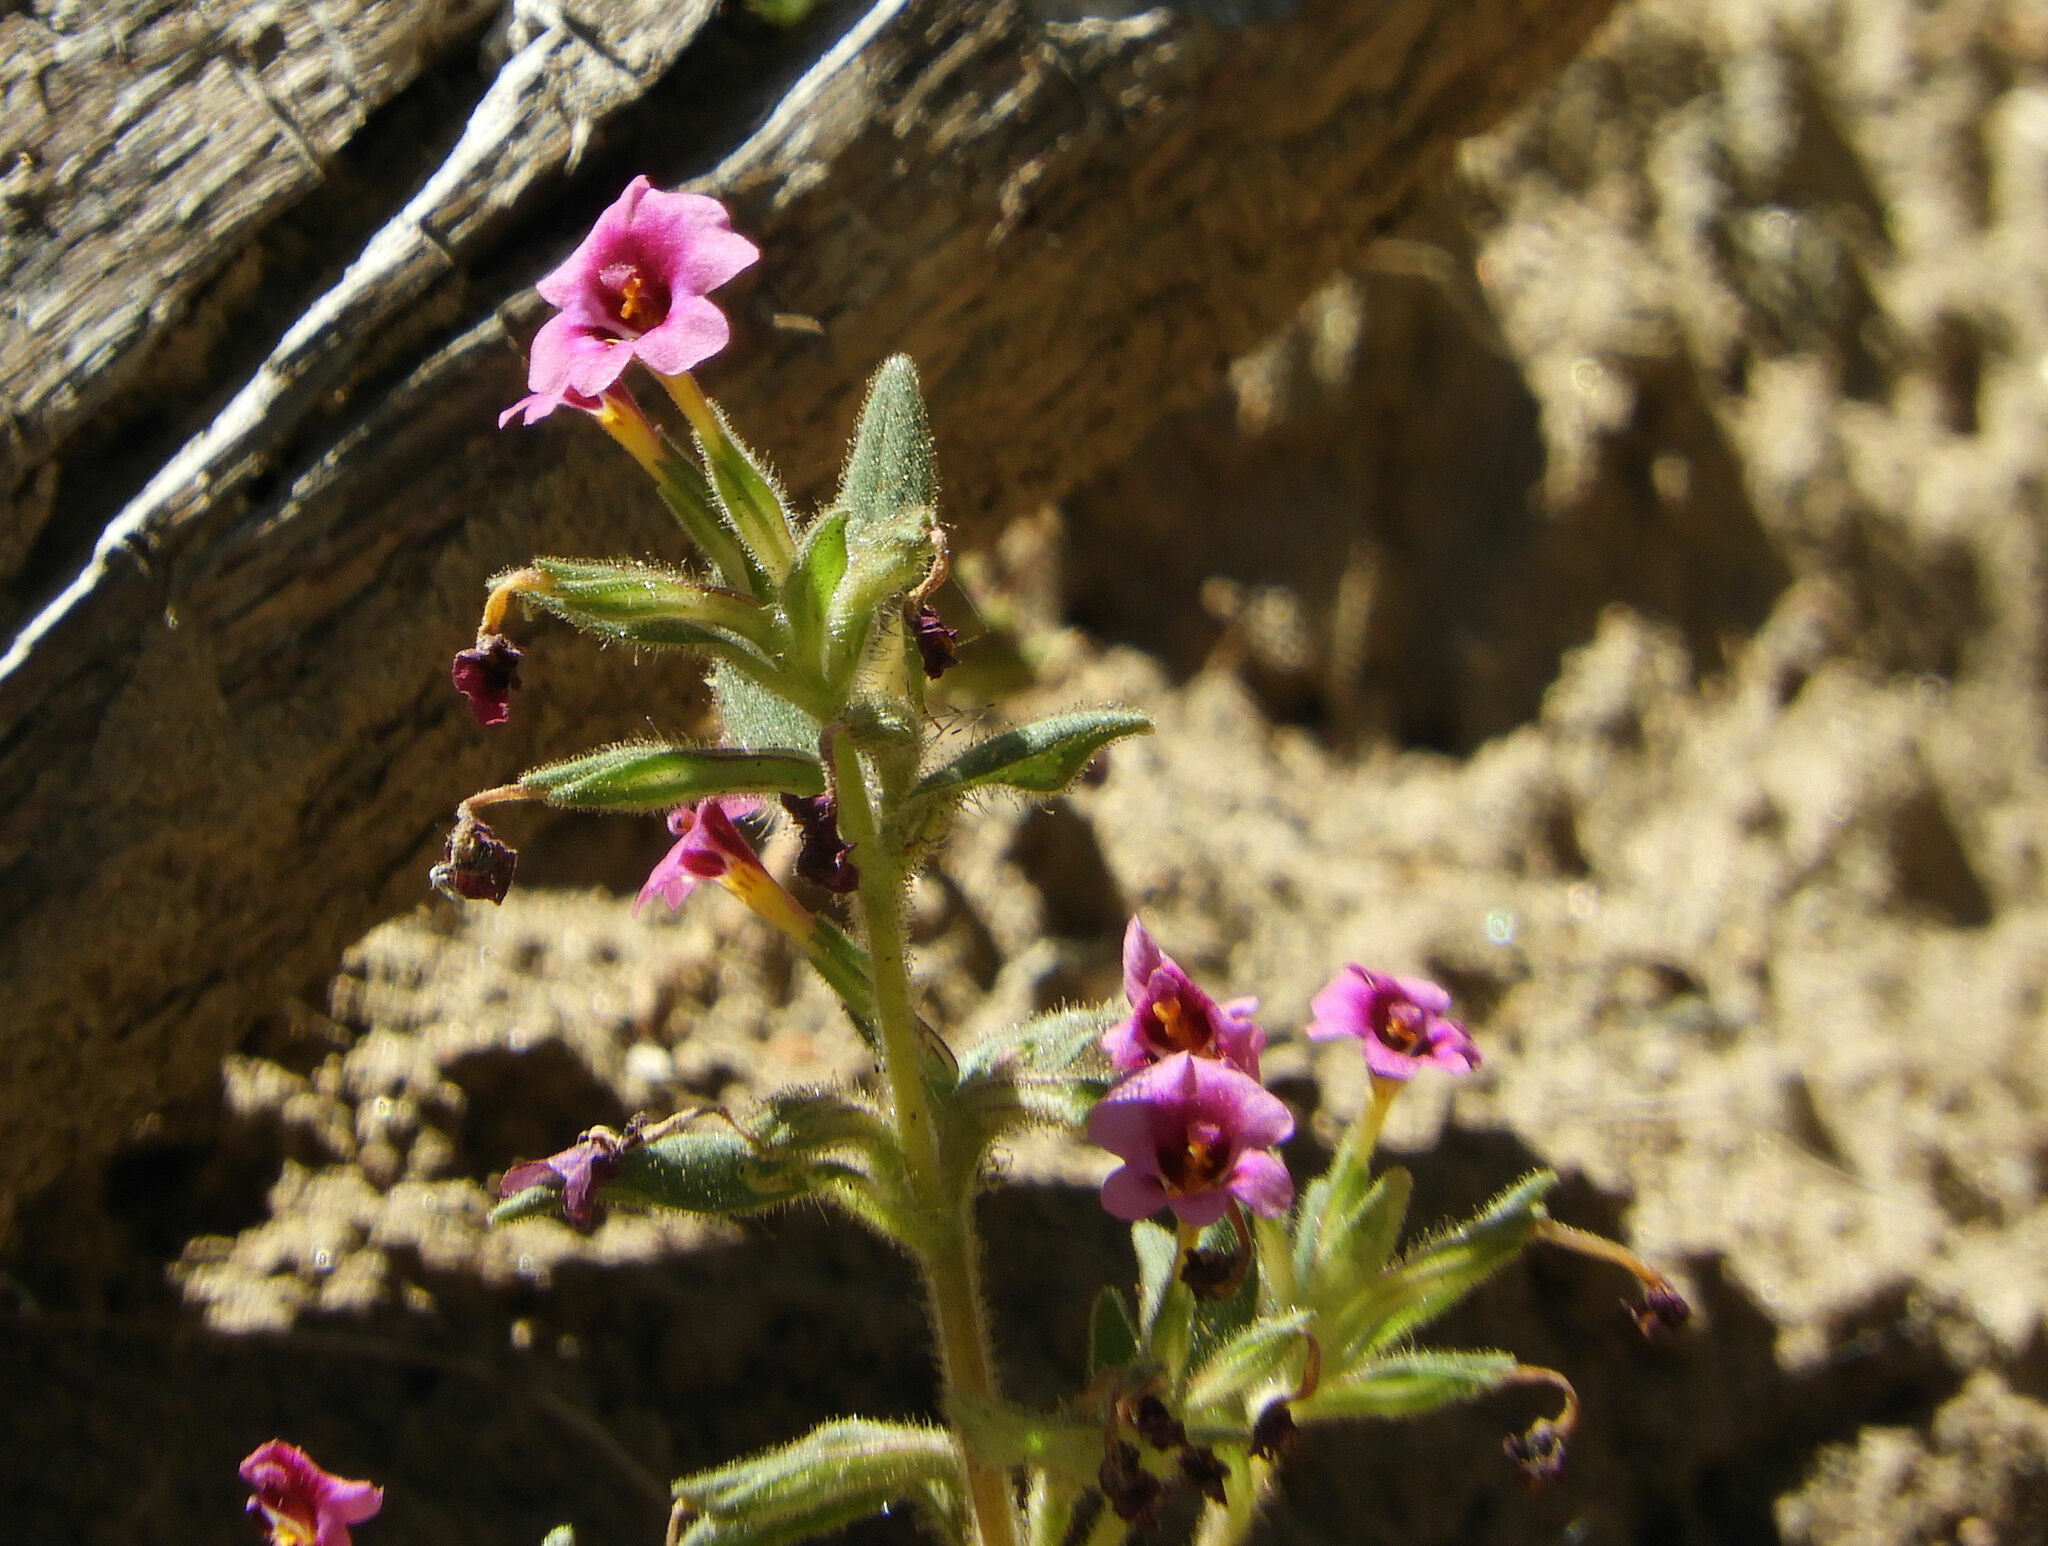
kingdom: Plantae
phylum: Tracheophyta
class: Magnoliopsida
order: Lamiales
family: Phrymaceae
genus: Diplacus
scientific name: Diplacus kelloggii
